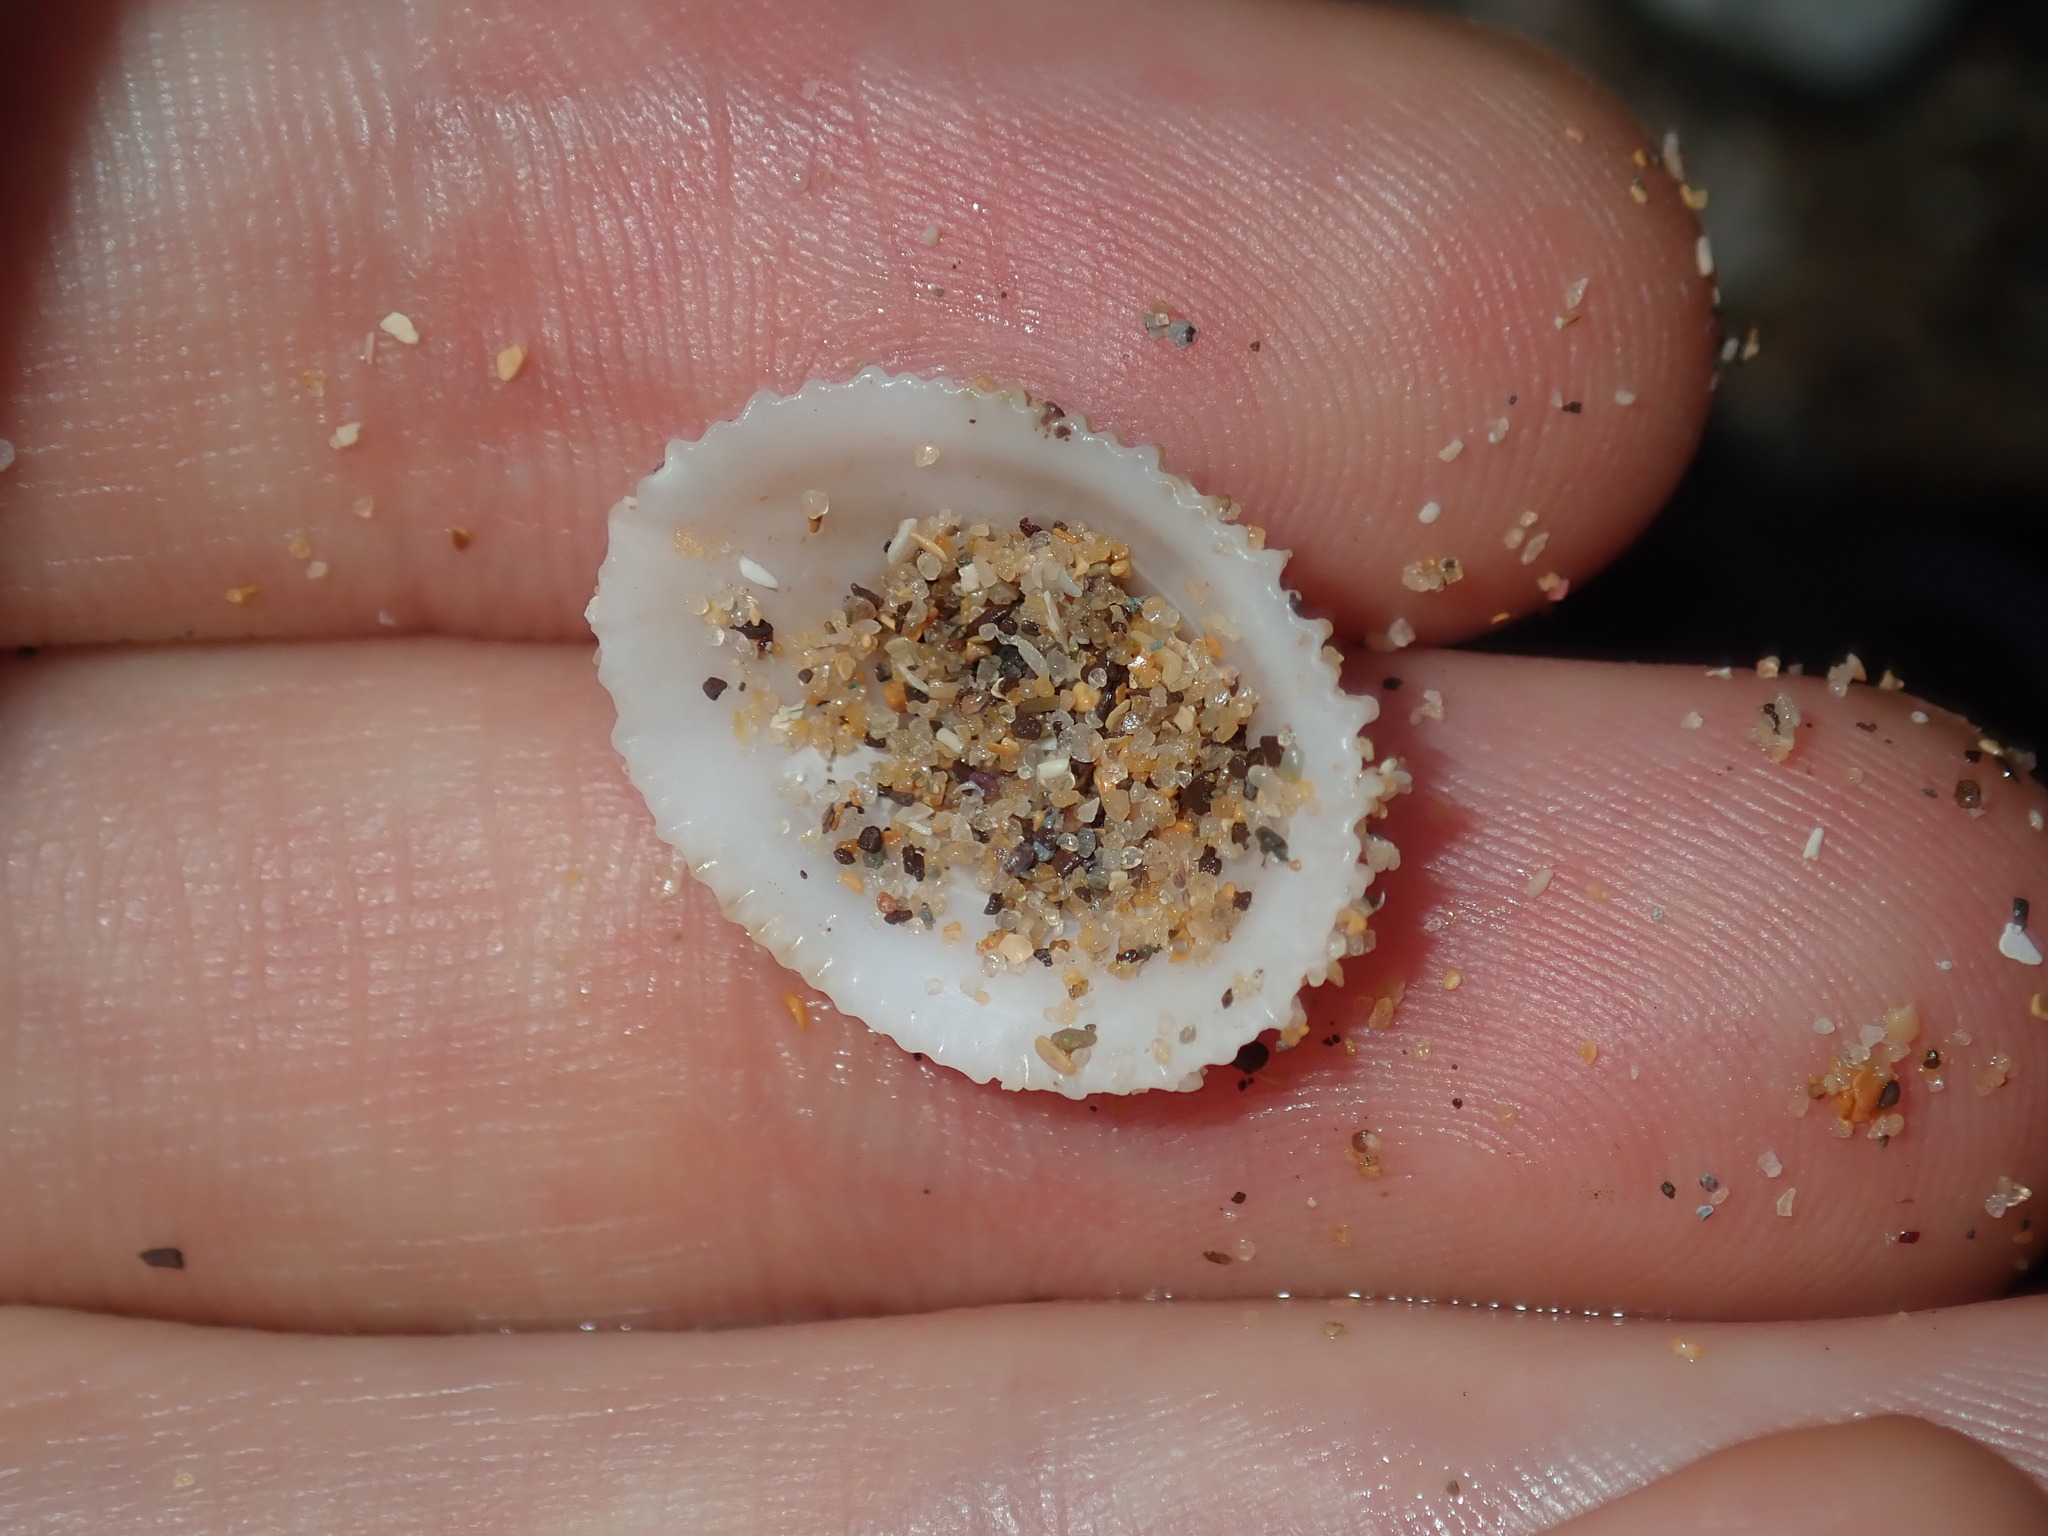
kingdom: Animalia
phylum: Mollusca
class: Gastropoda
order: Lepetellida
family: Fissurellidae
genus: Montfortula
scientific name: Montfortula rugosa
